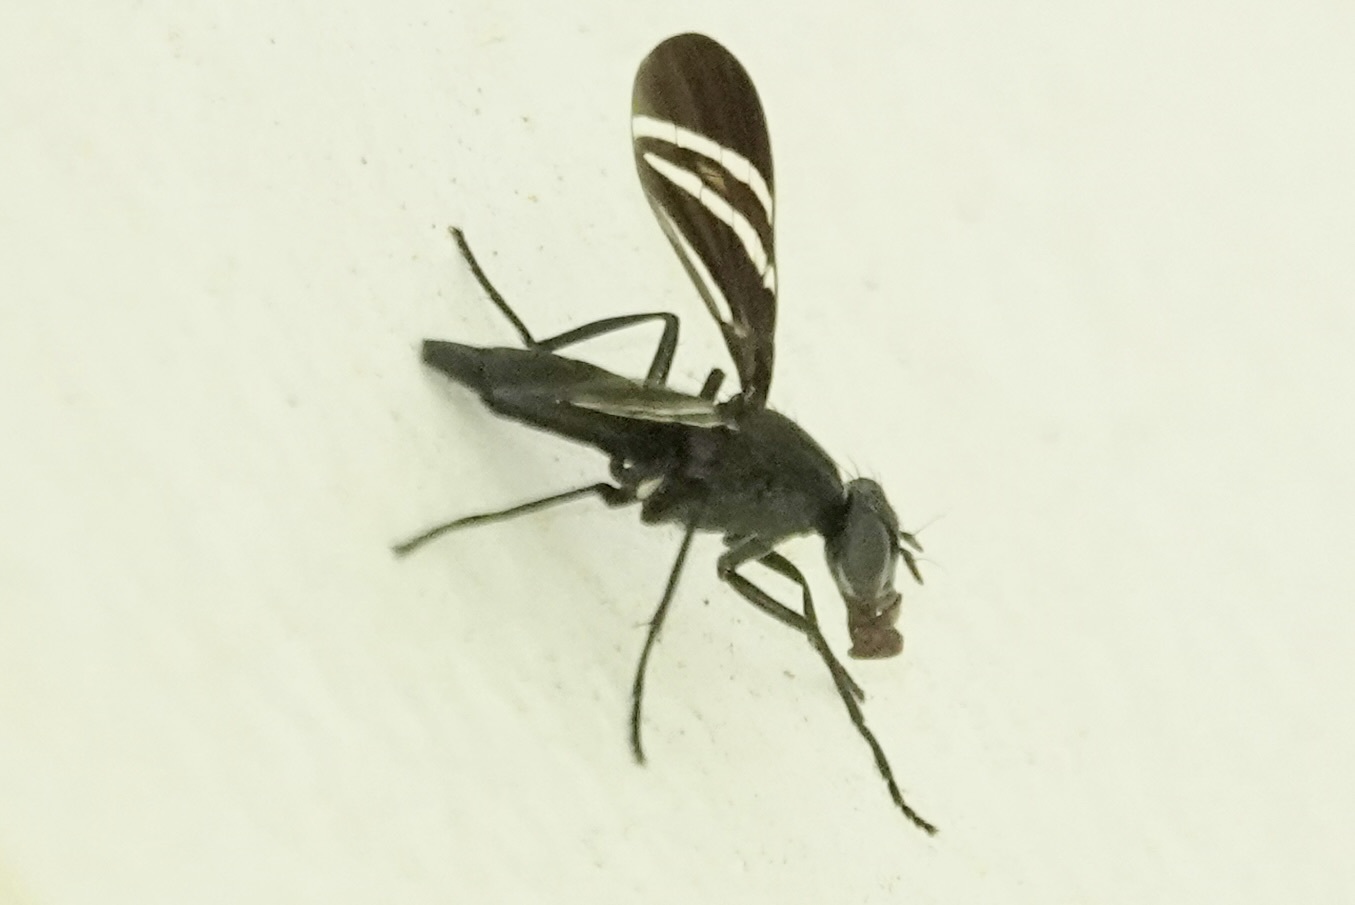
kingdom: Animalia
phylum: Arthropoda
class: Insecta
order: Diptera
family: Ulidiidae
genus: Tritoxa
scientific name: Tritoxa flexa
